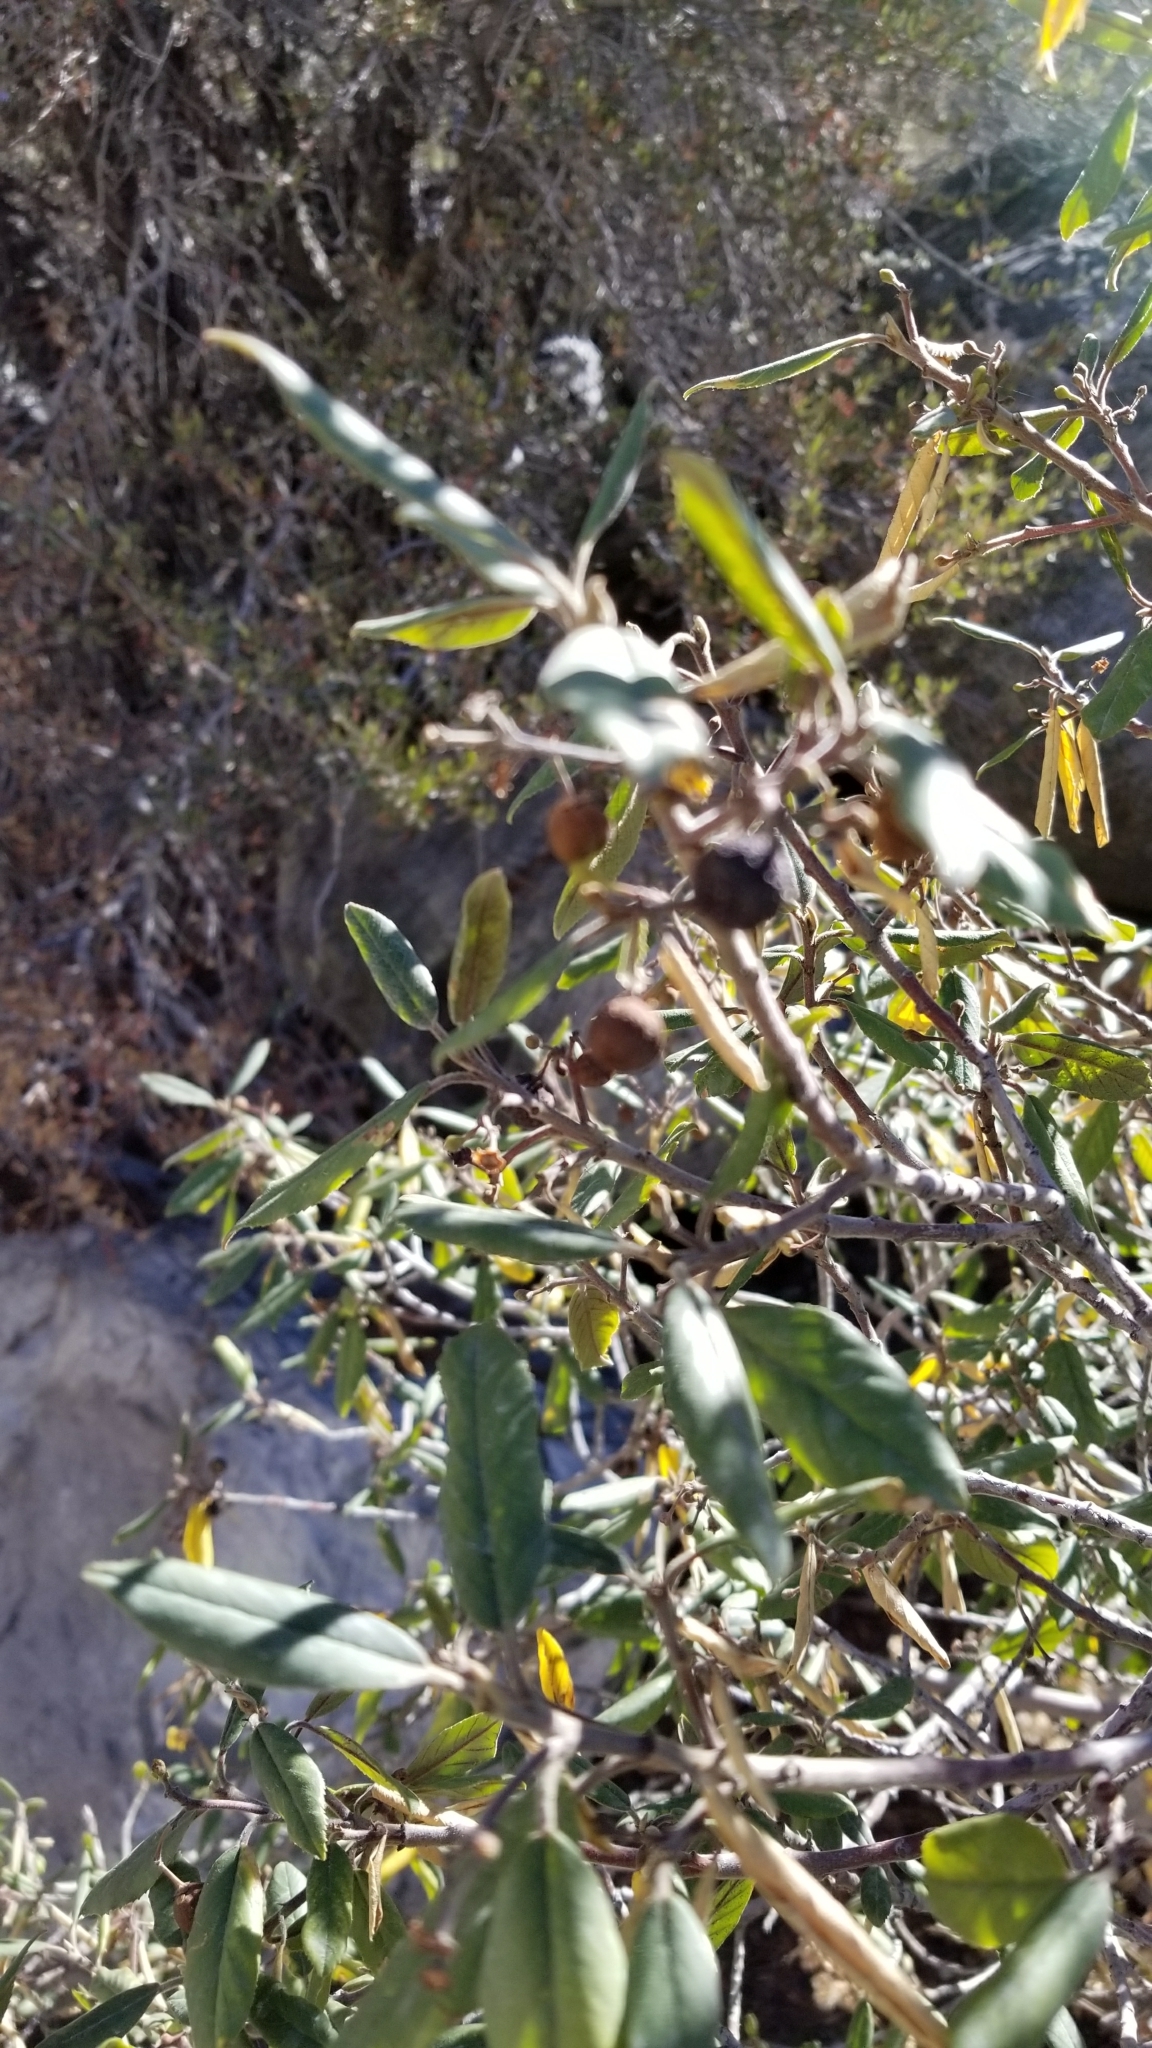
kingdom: Plantae
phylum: Tracheophyta
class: Magnoliopsida
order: Rosales
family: Rhamnaceae
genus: Frangula
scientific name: Frangula californica
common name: California buckthorn
